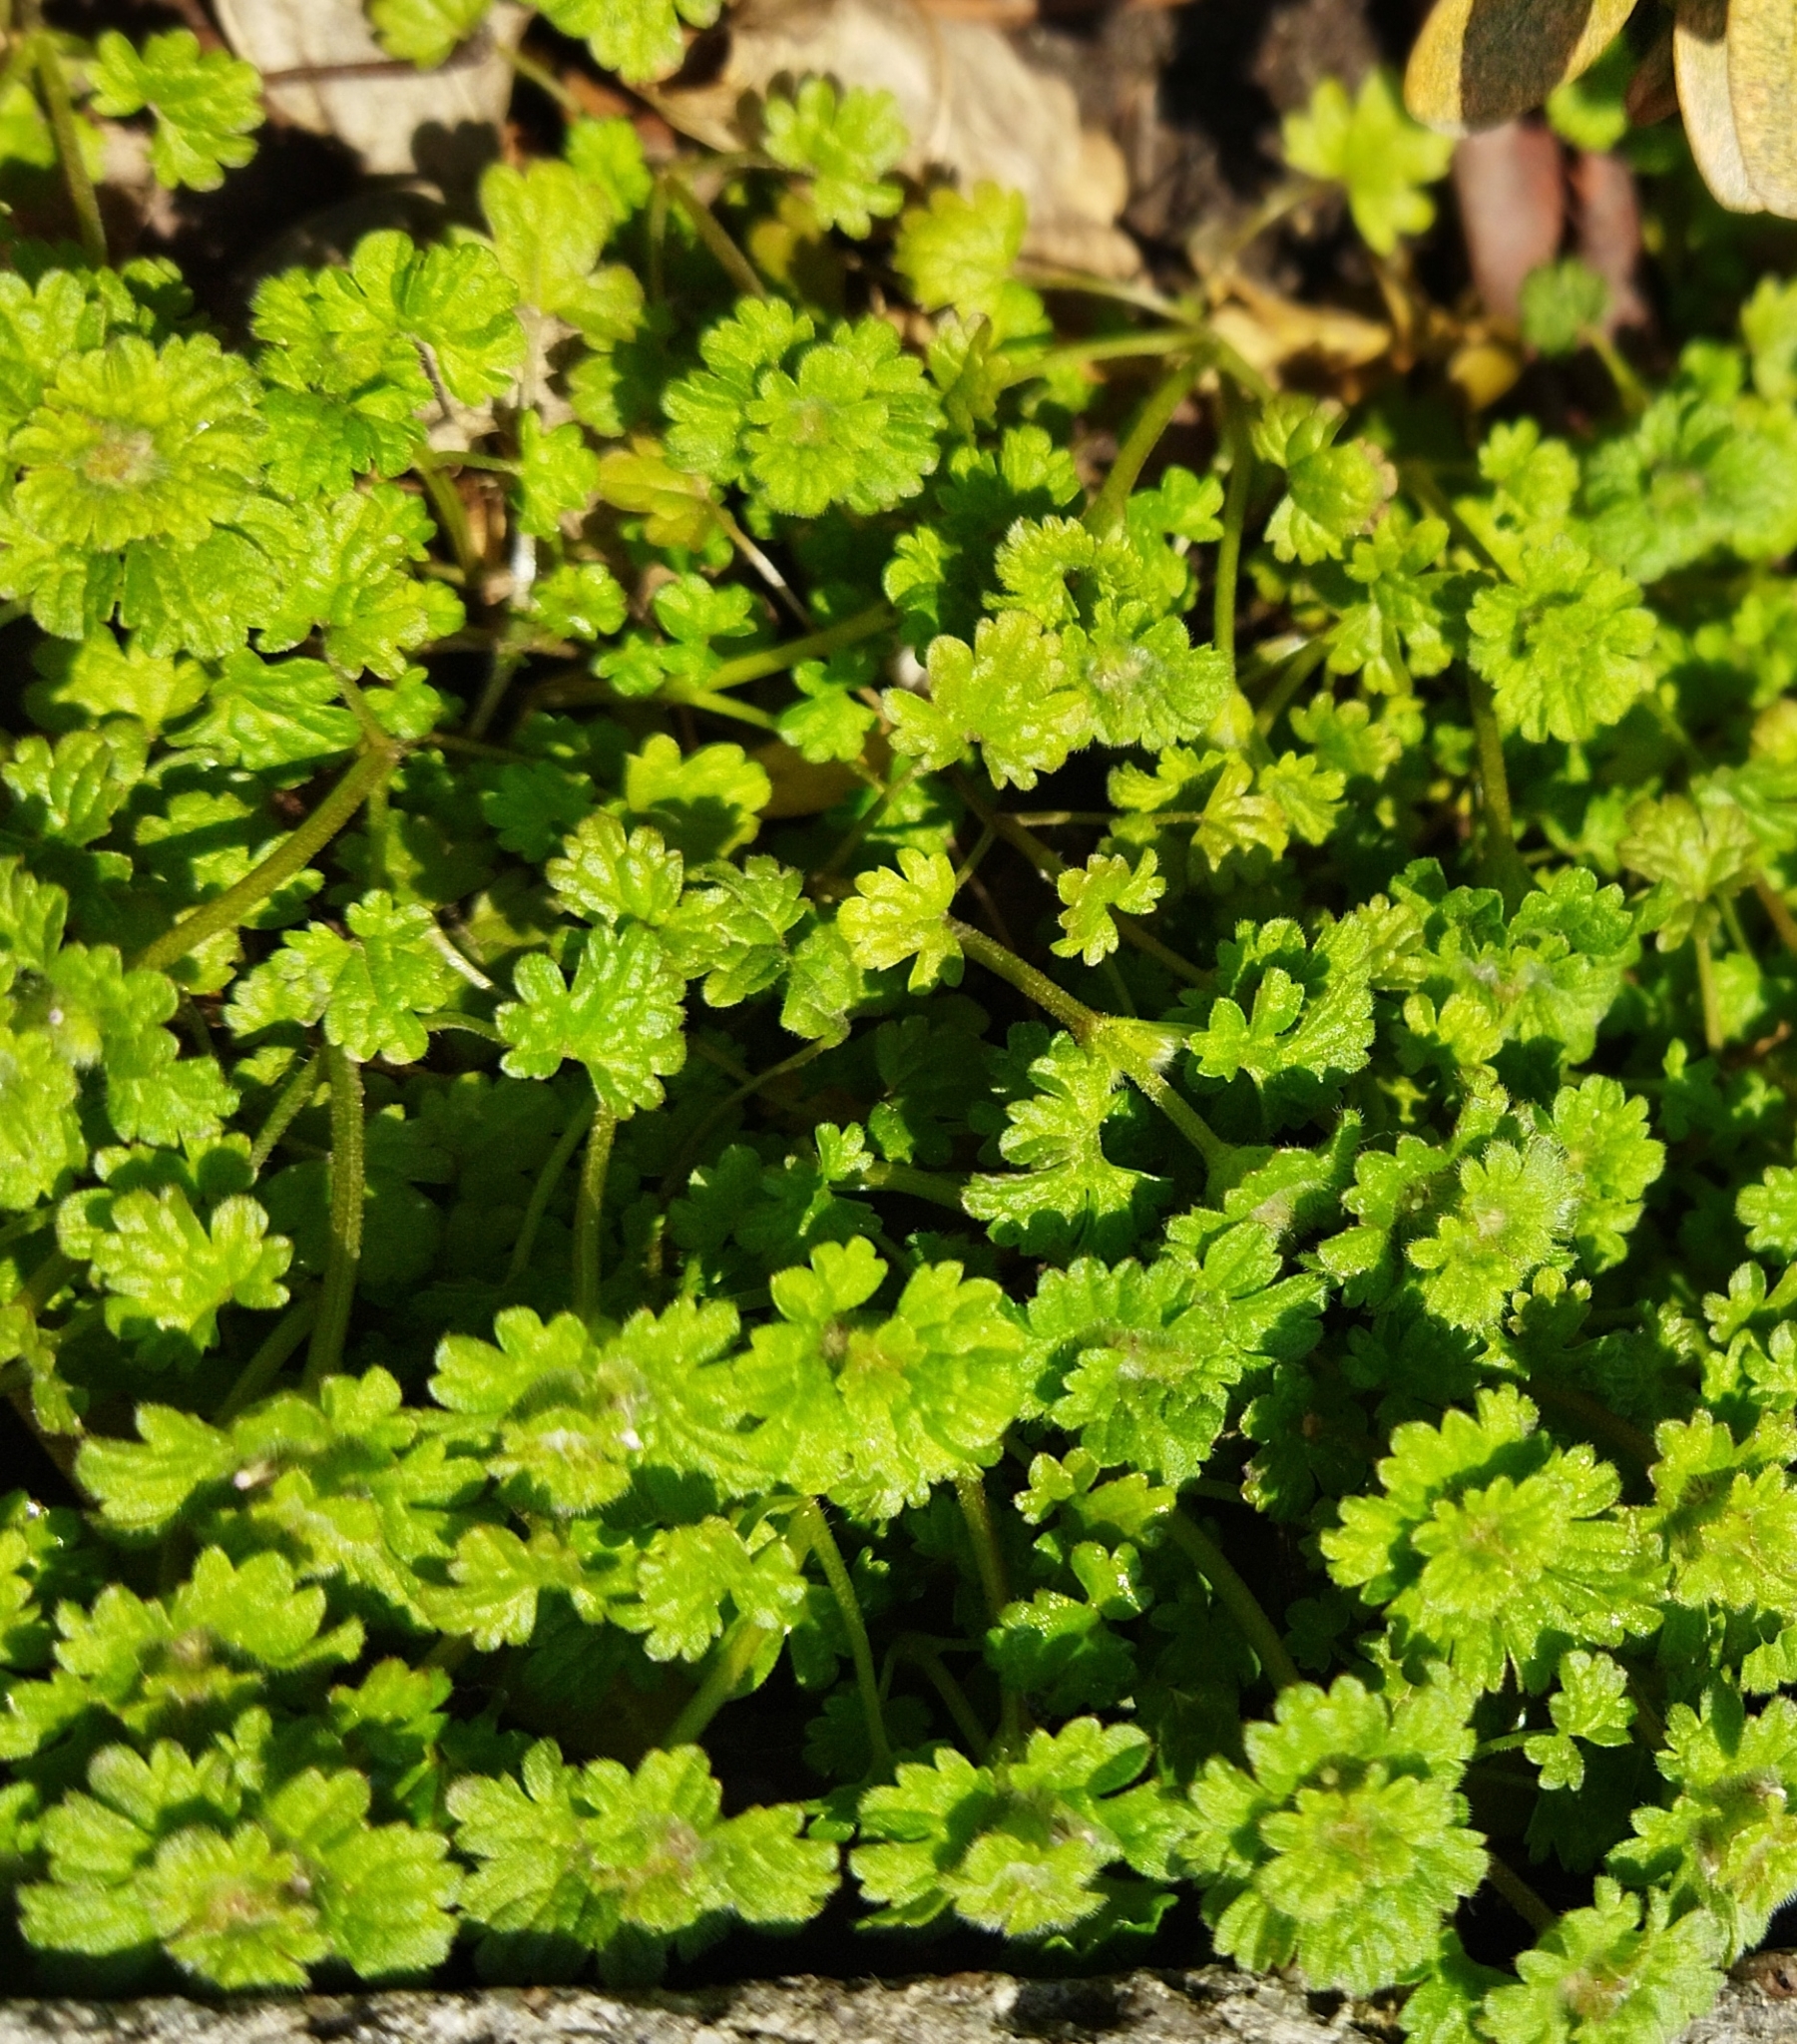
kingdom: Plantae
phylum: Tracheophyta
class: Magnoliopsida
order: Lamiales
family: Lamiaceae
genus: Lamium
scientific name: Lamium amplexicaule
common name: Henbit dead-nettle
